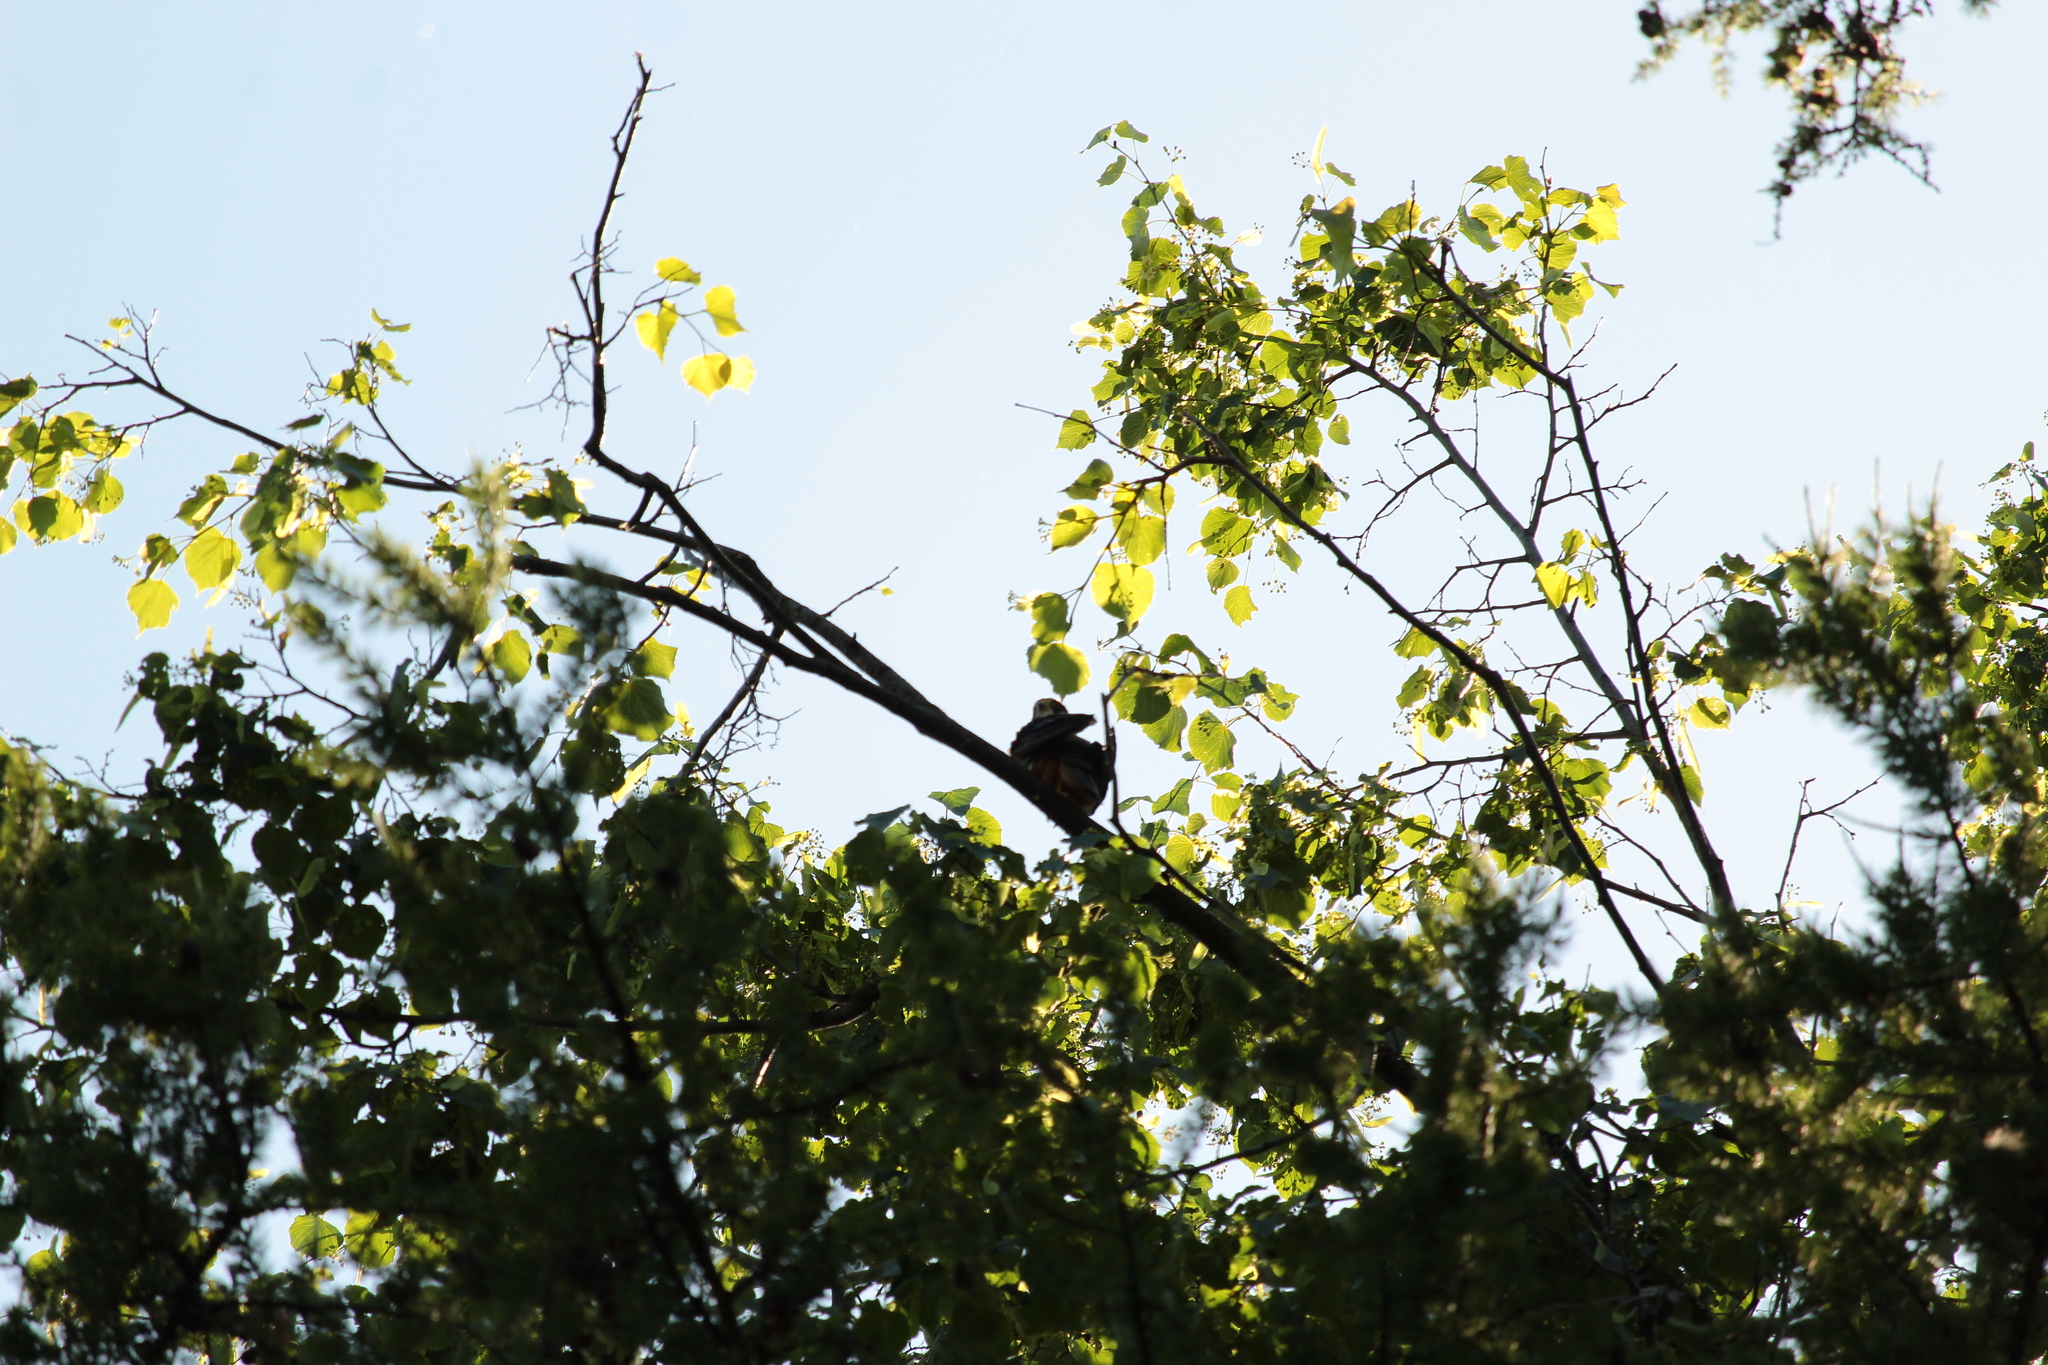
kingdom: Animalia
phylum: Chordata
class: Aves
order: Falconiformes
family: Falconidae
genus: Falco
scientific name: Falco subbuteo
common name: Eurasian hobby
